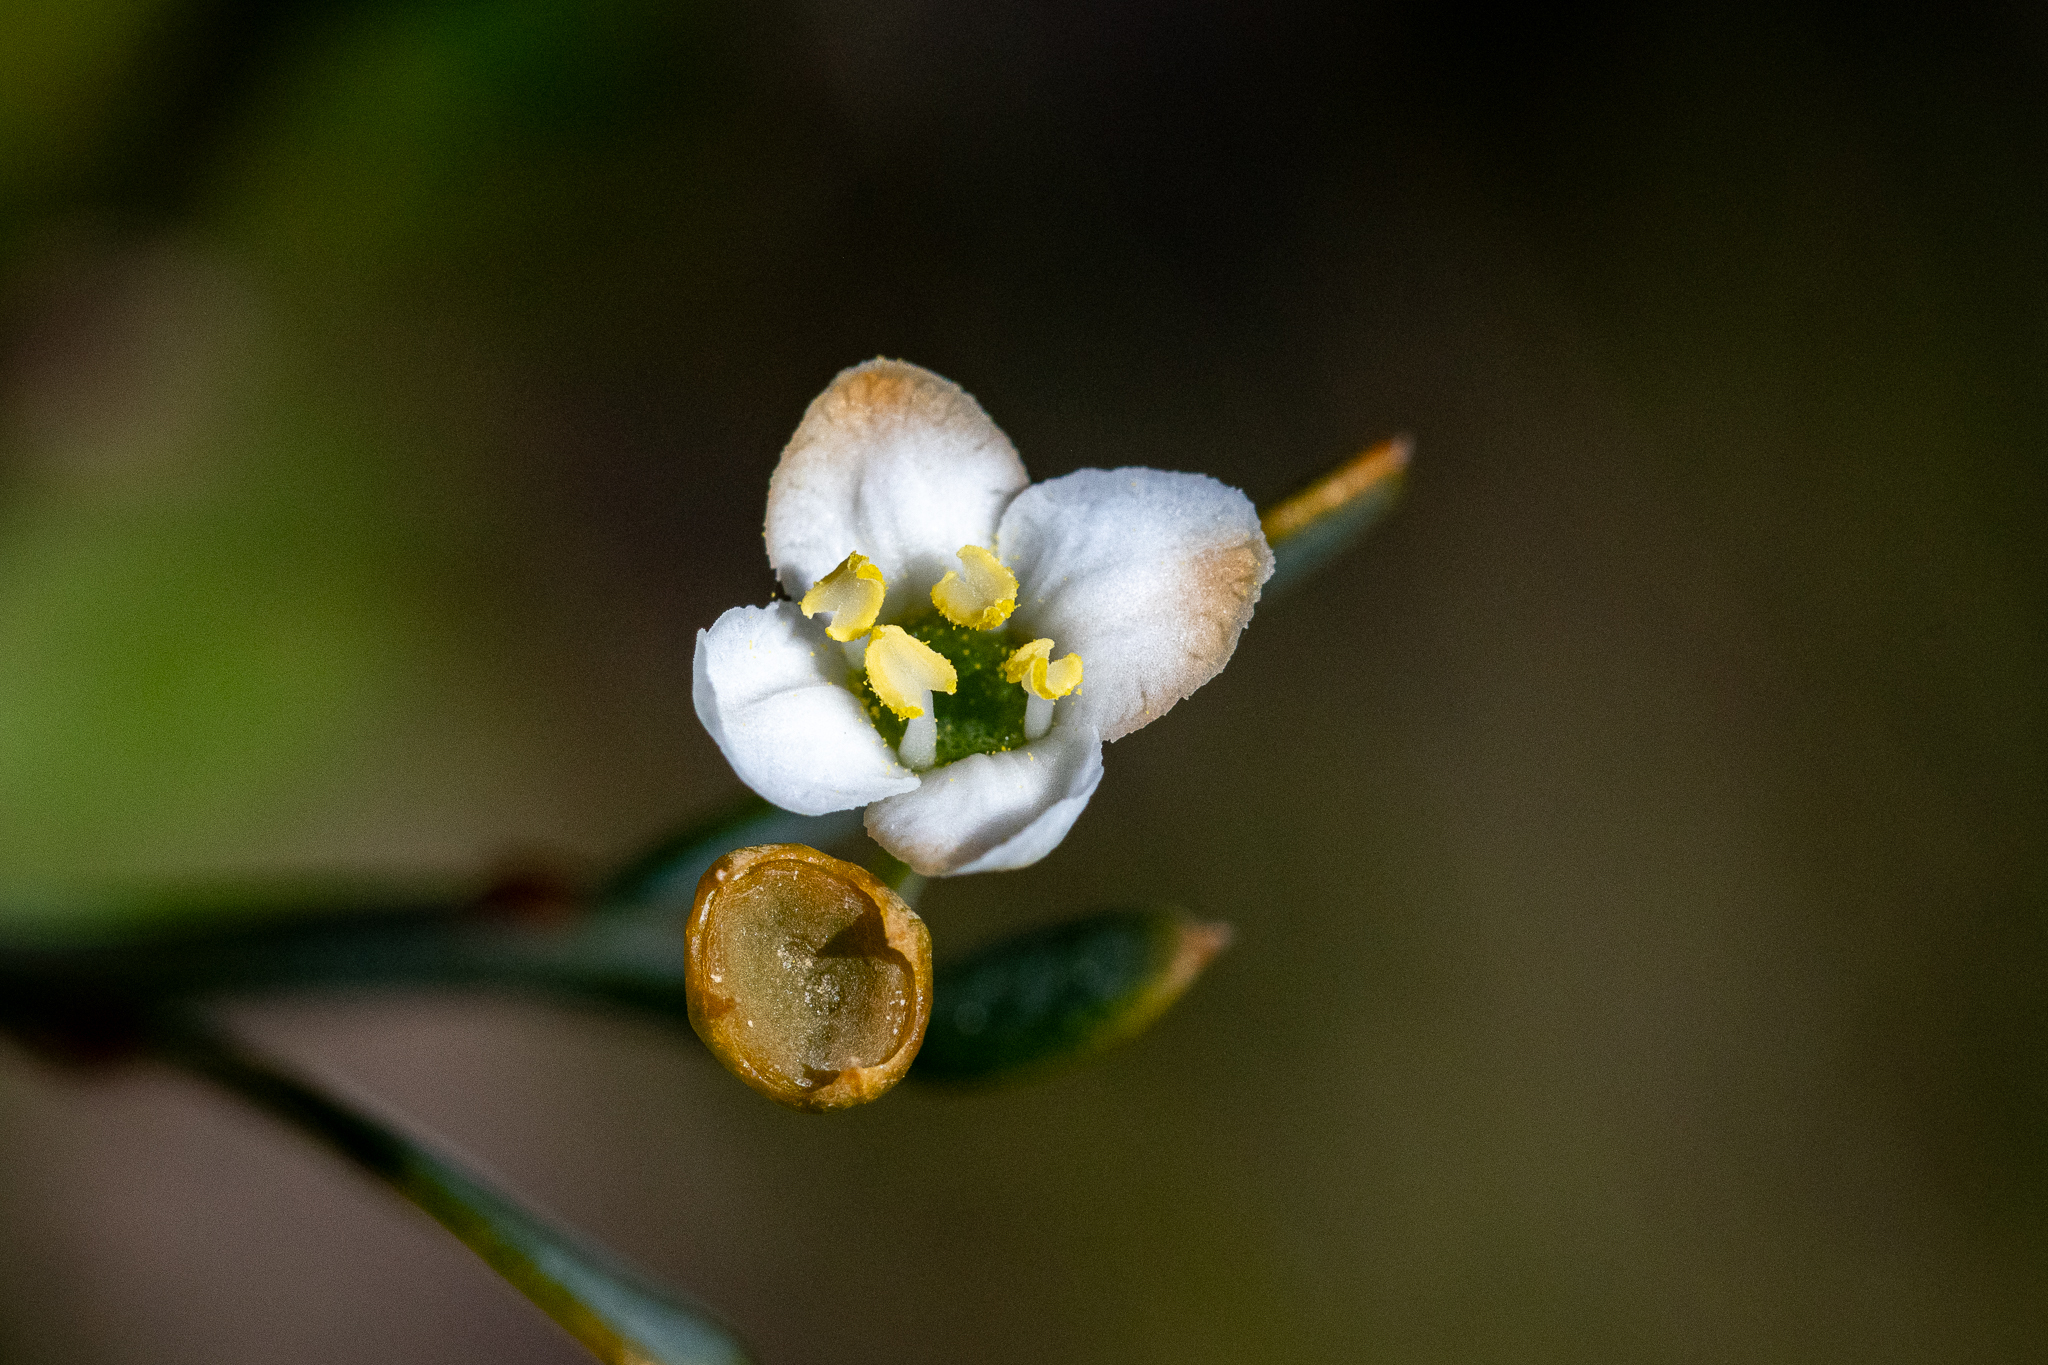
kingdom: Plantae
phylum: Tracheophyta
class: Magnoliopsida
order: Solanales
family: Montiniaceae
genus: Montinia
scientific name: Montinia caryophyllacea
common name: Wild clove-bush
